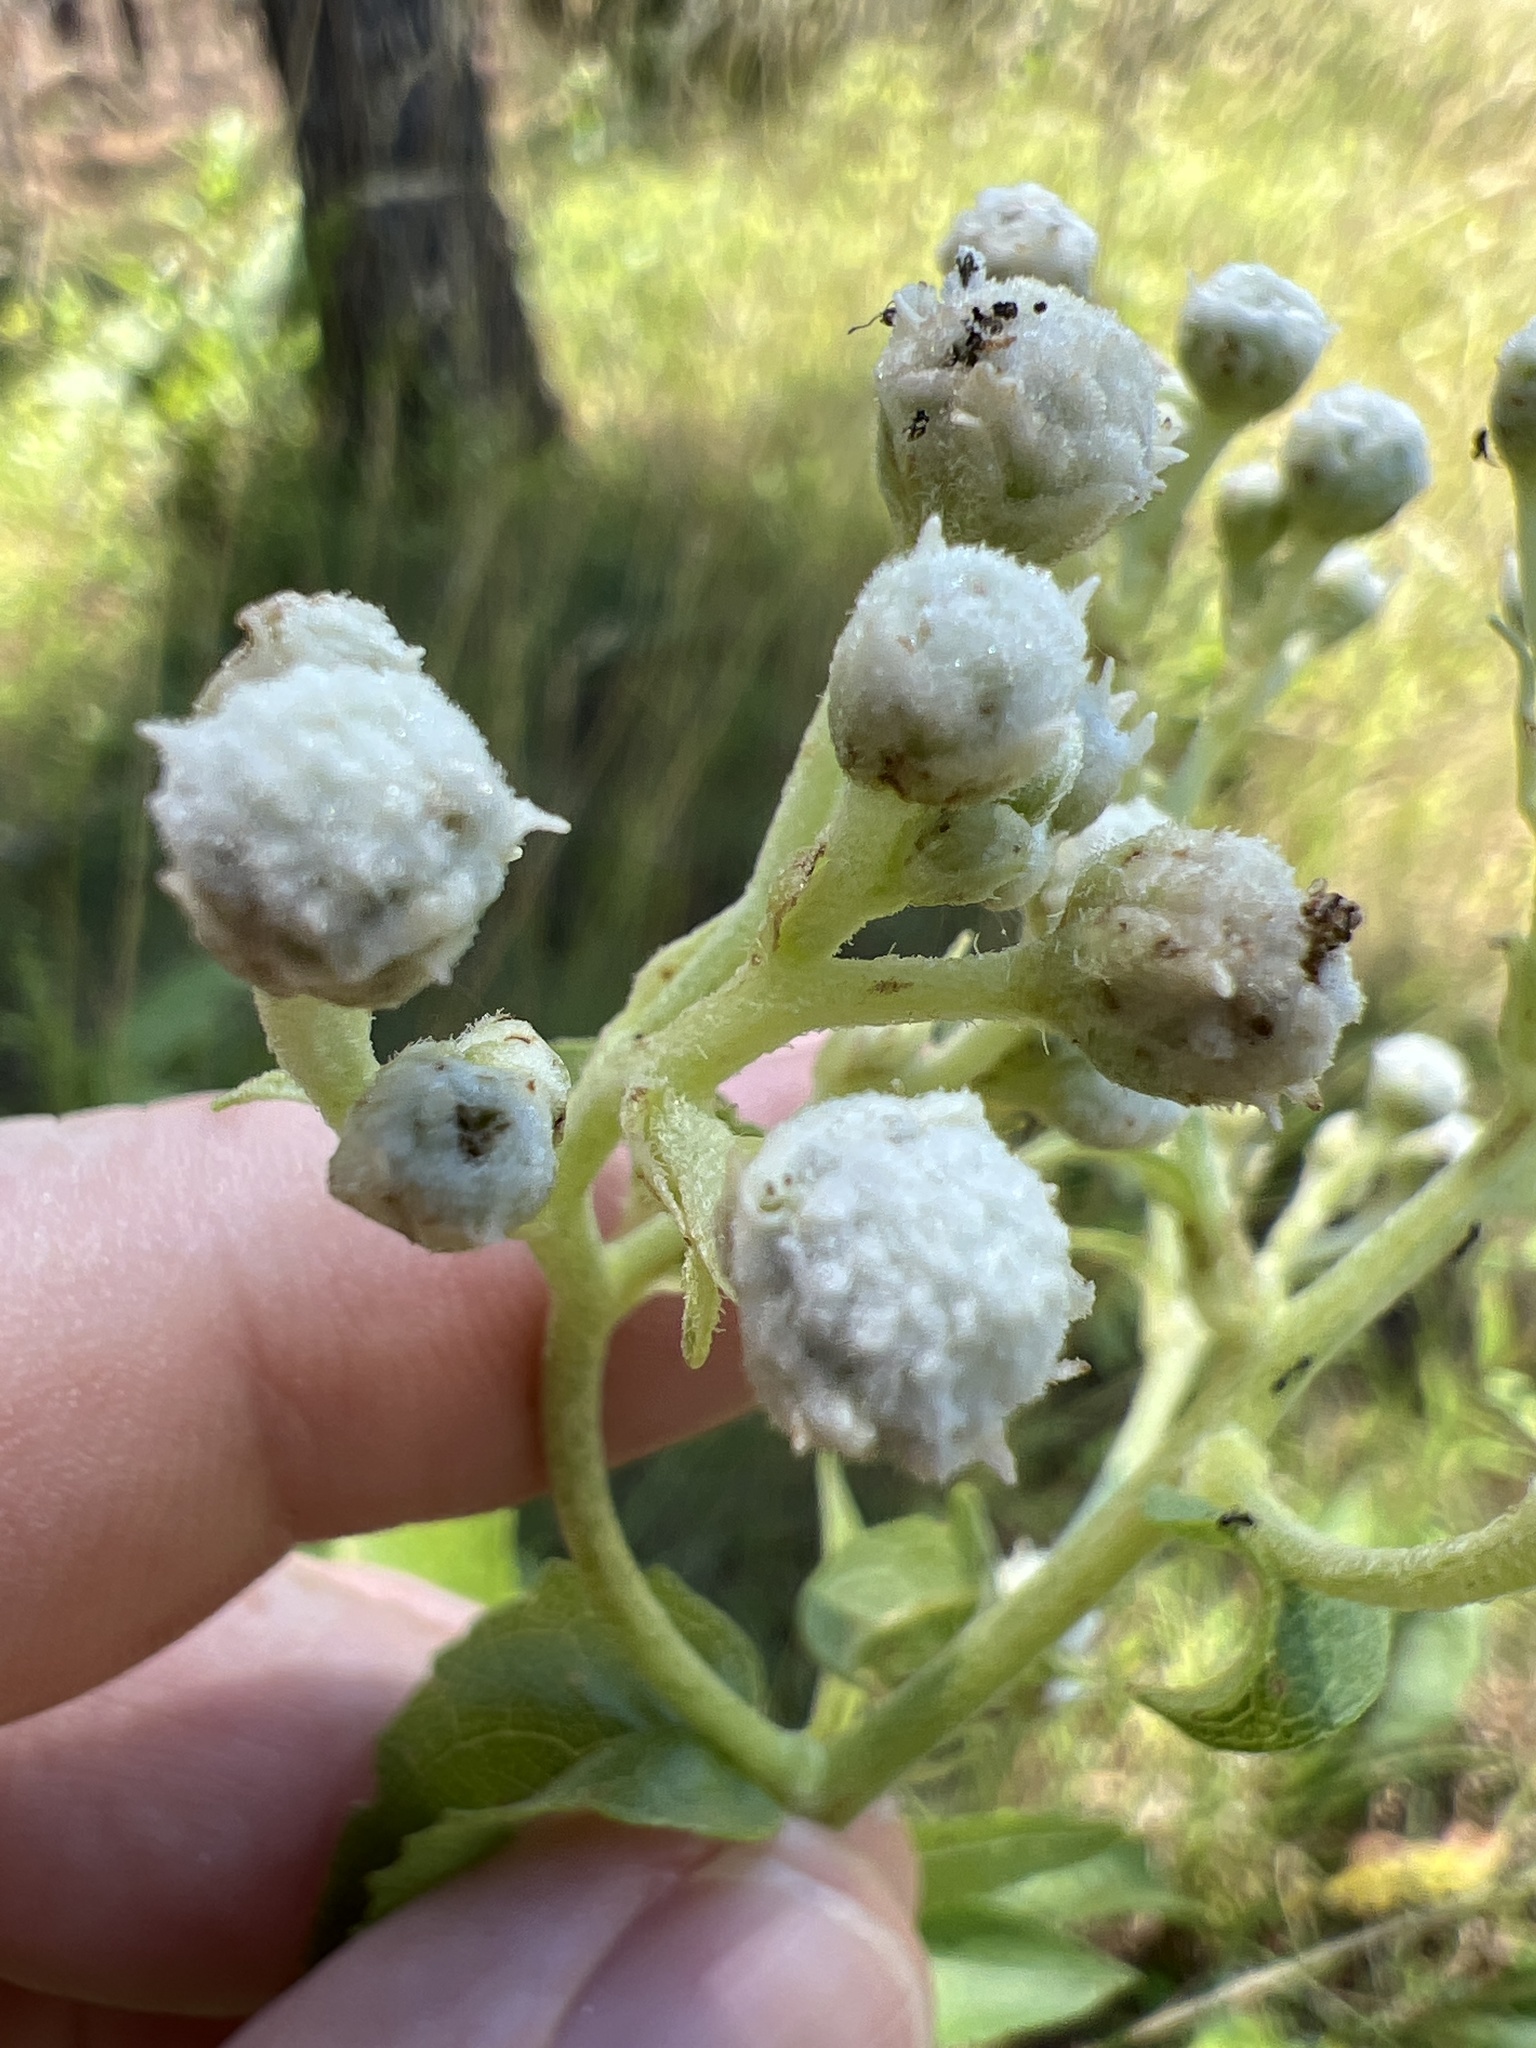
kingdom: Plantae
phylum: Tracheophyta
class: Magnoliopsida
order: Asterales
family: Asteraceae
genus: Parthenium
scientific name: Parthenium integrifolium
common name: American feverfew
